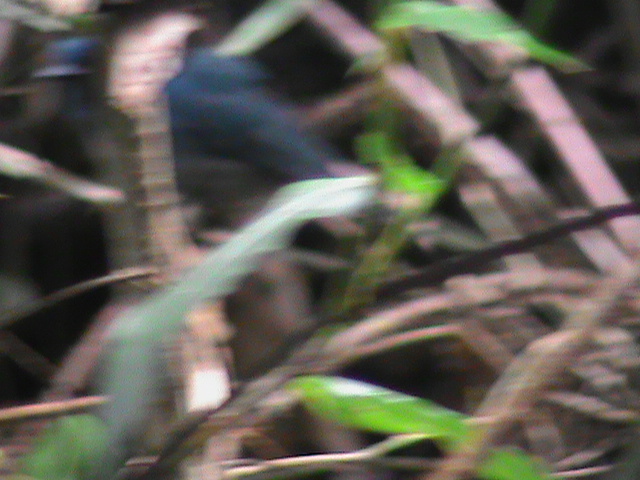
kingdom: Animalia
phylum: Chordata
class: Aves
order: Passeriformes
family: Muscicapidae
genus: Eumyias
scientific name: Eumyias albicaudatus
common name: Nilgiri flycatcher
